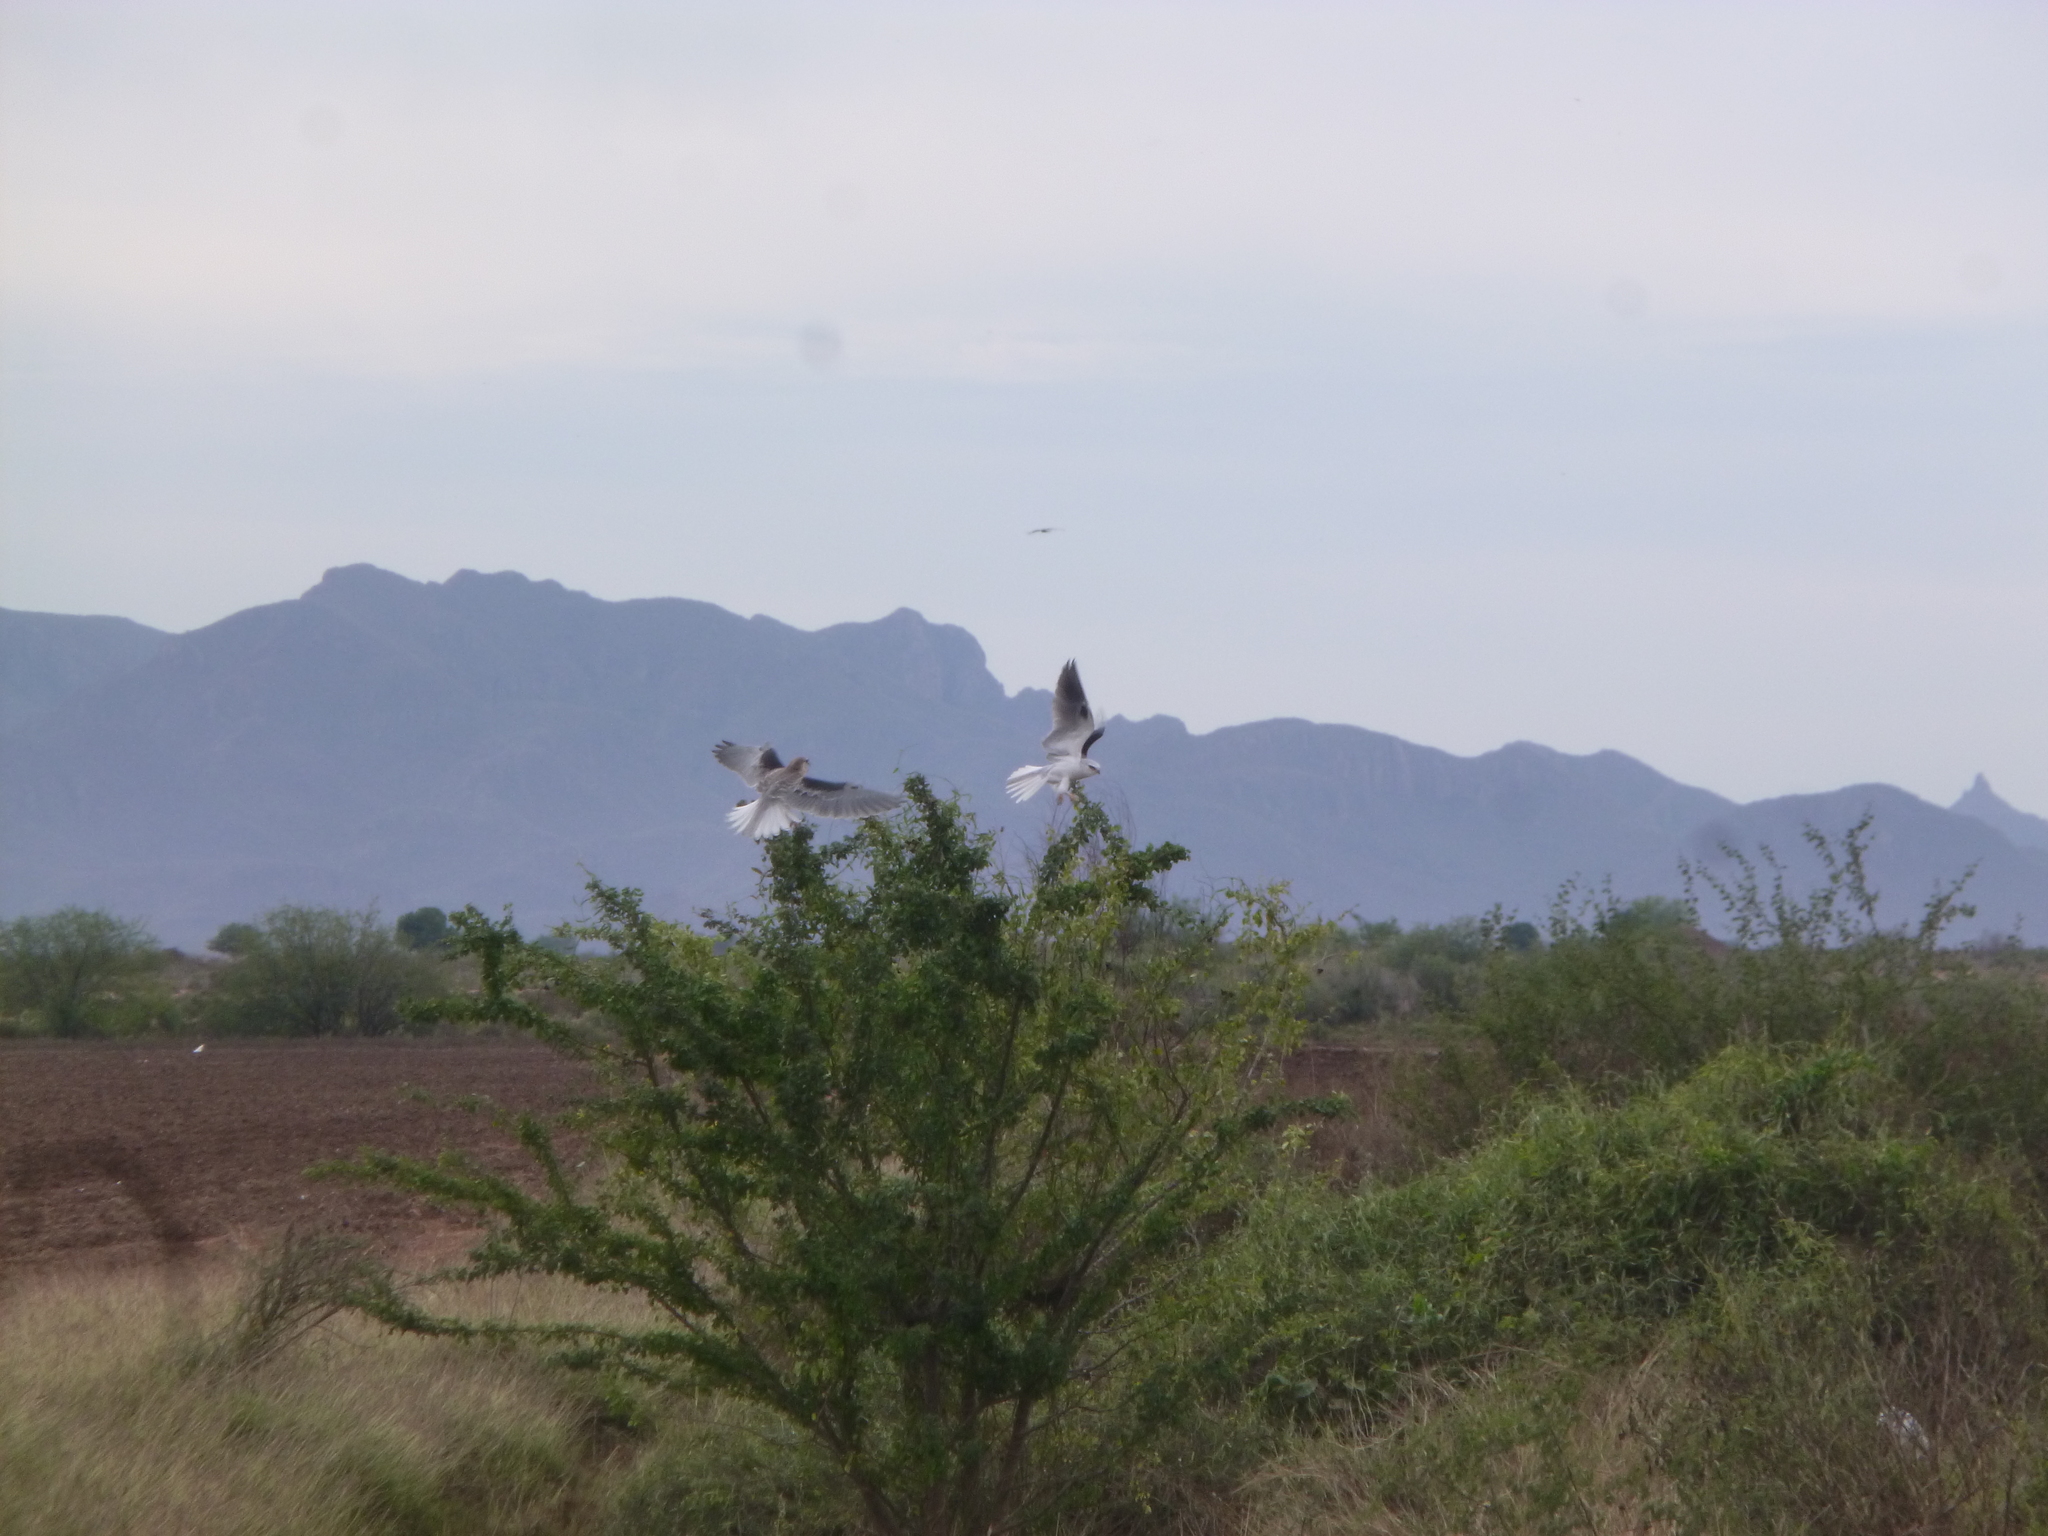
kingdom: Animalia
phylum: Chordata
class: Aves
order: Accipitriformes
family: Accipitridae
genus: Elanus
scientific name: Elanus leucurus
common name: White-tailed kite
